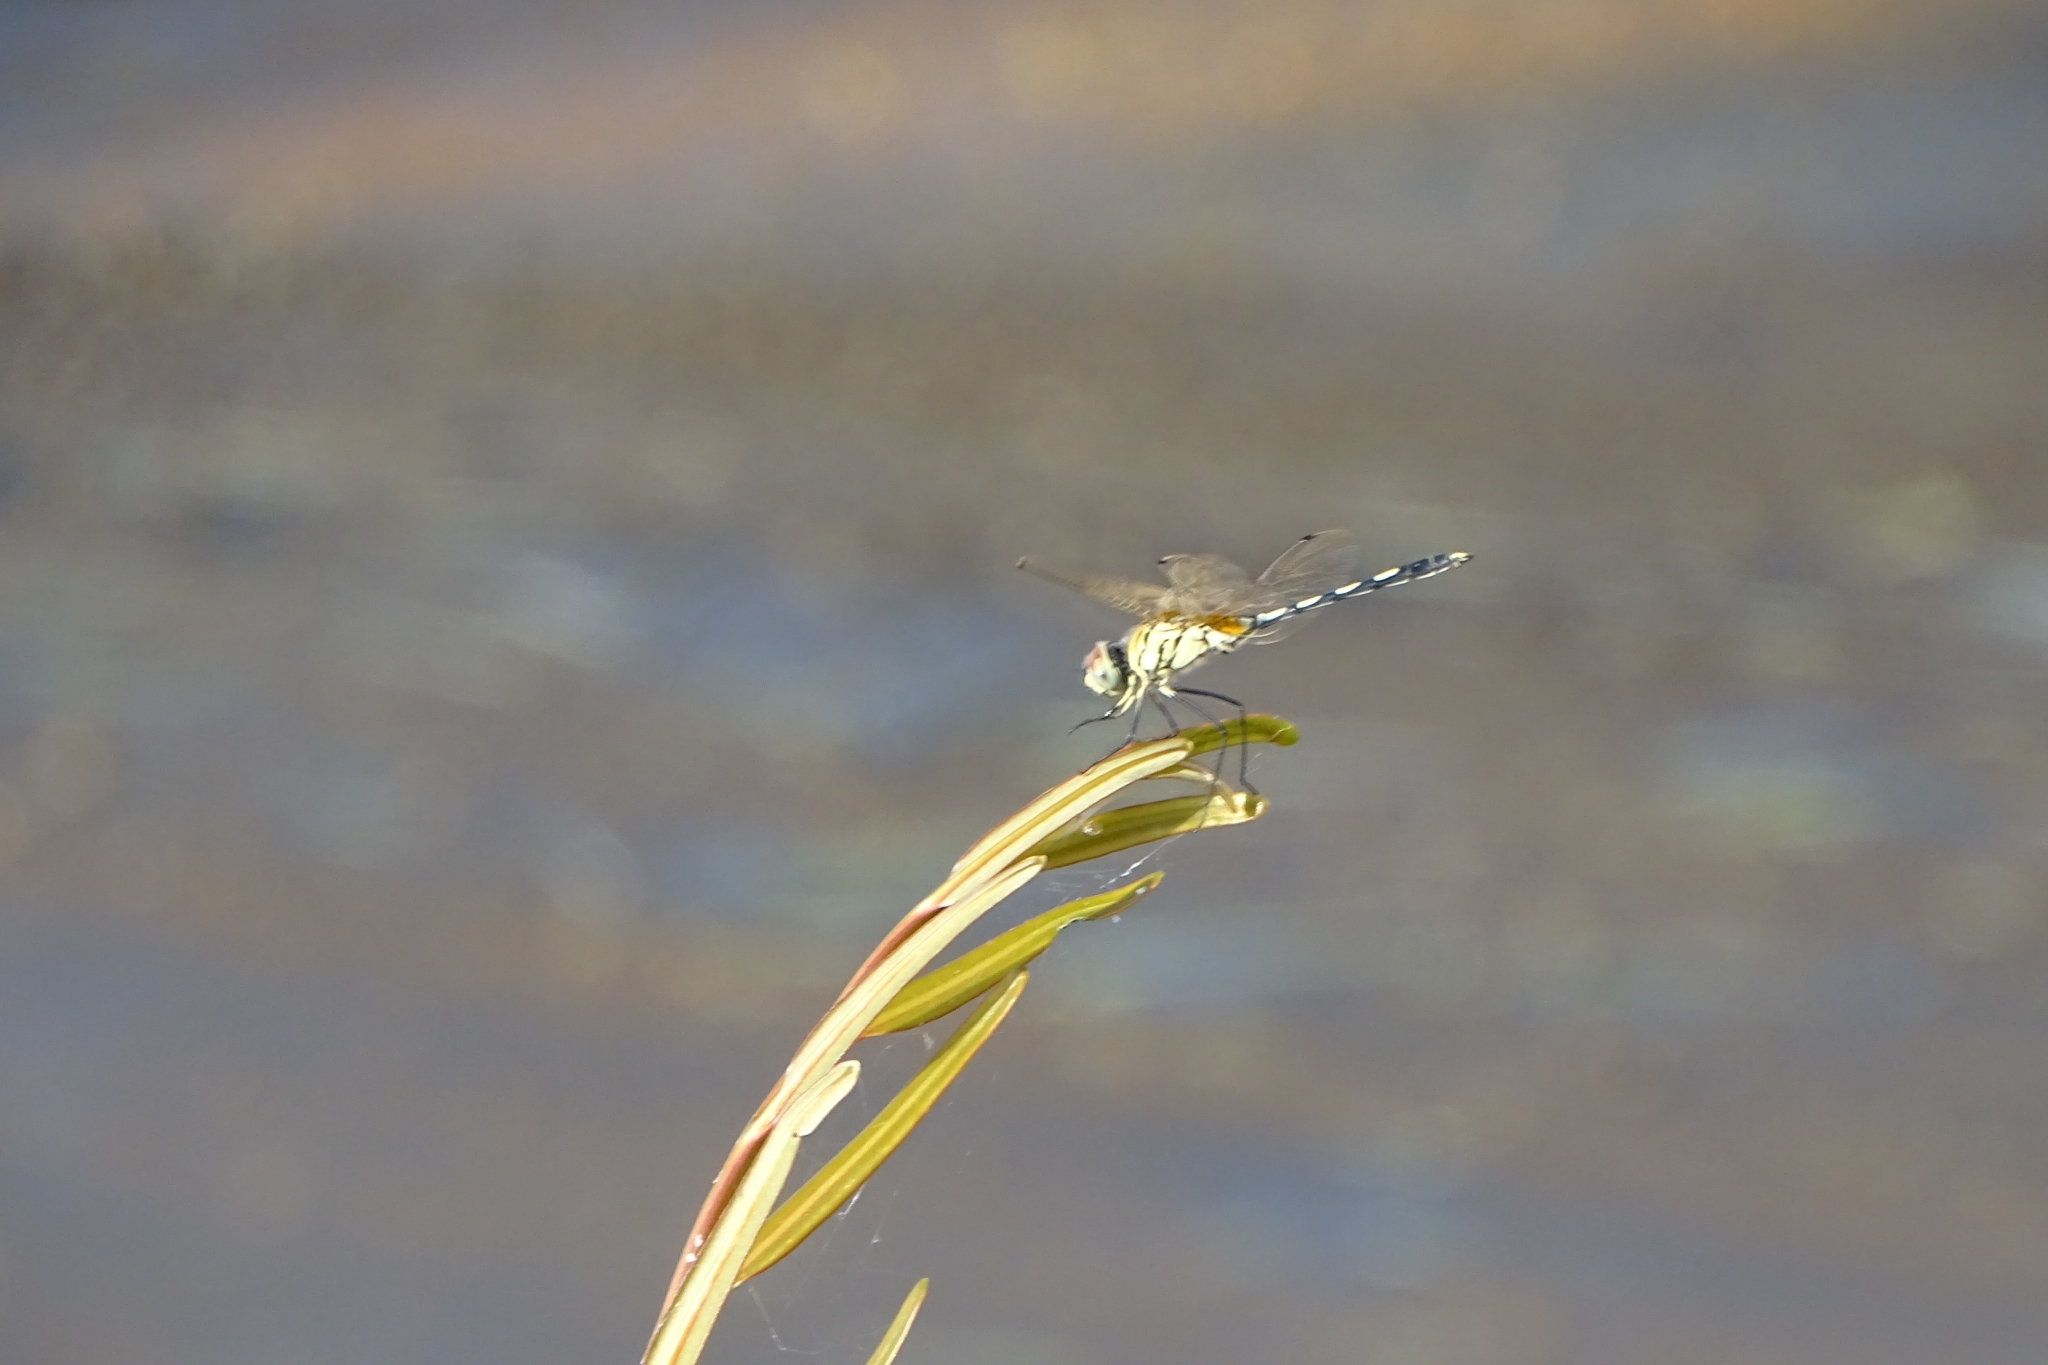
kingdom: Animalia
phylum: Arthropoda
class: Insecta
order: Odonata
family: Libellulidae
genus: Trithemis
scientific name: Trithemis pallidinervis
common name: Dancing dropwing
